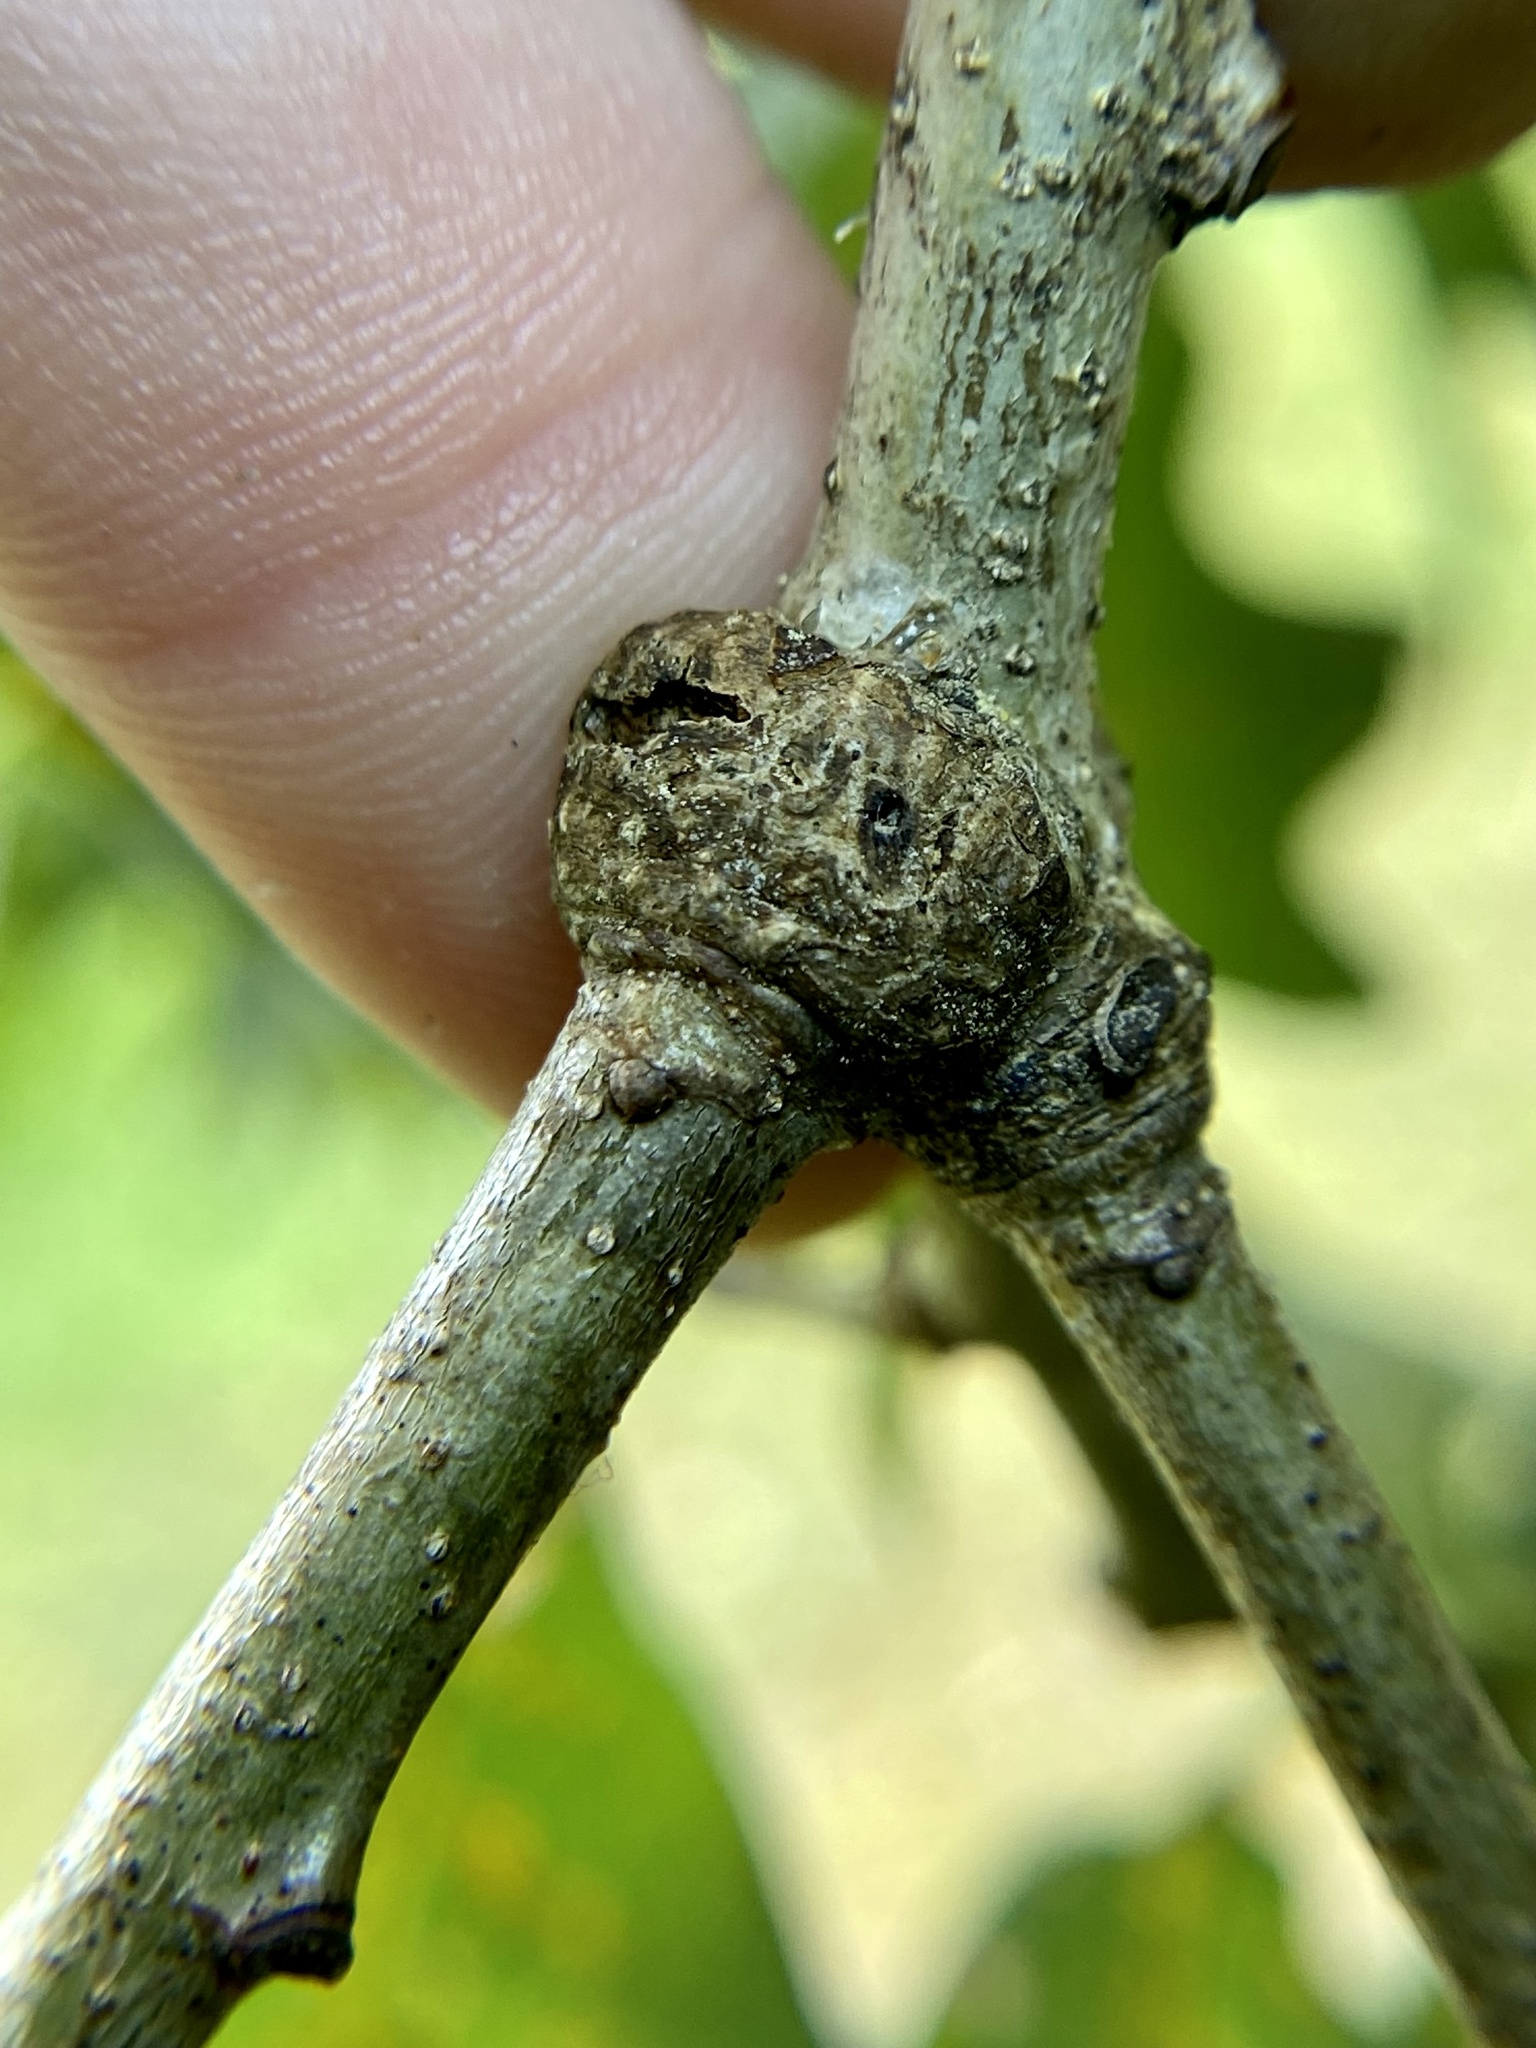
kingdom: Animalia
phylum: Arthropoda
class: Insecta
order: Hymenoptera
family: Cynipidae
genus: Loxaulus
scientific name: Loxaulus
